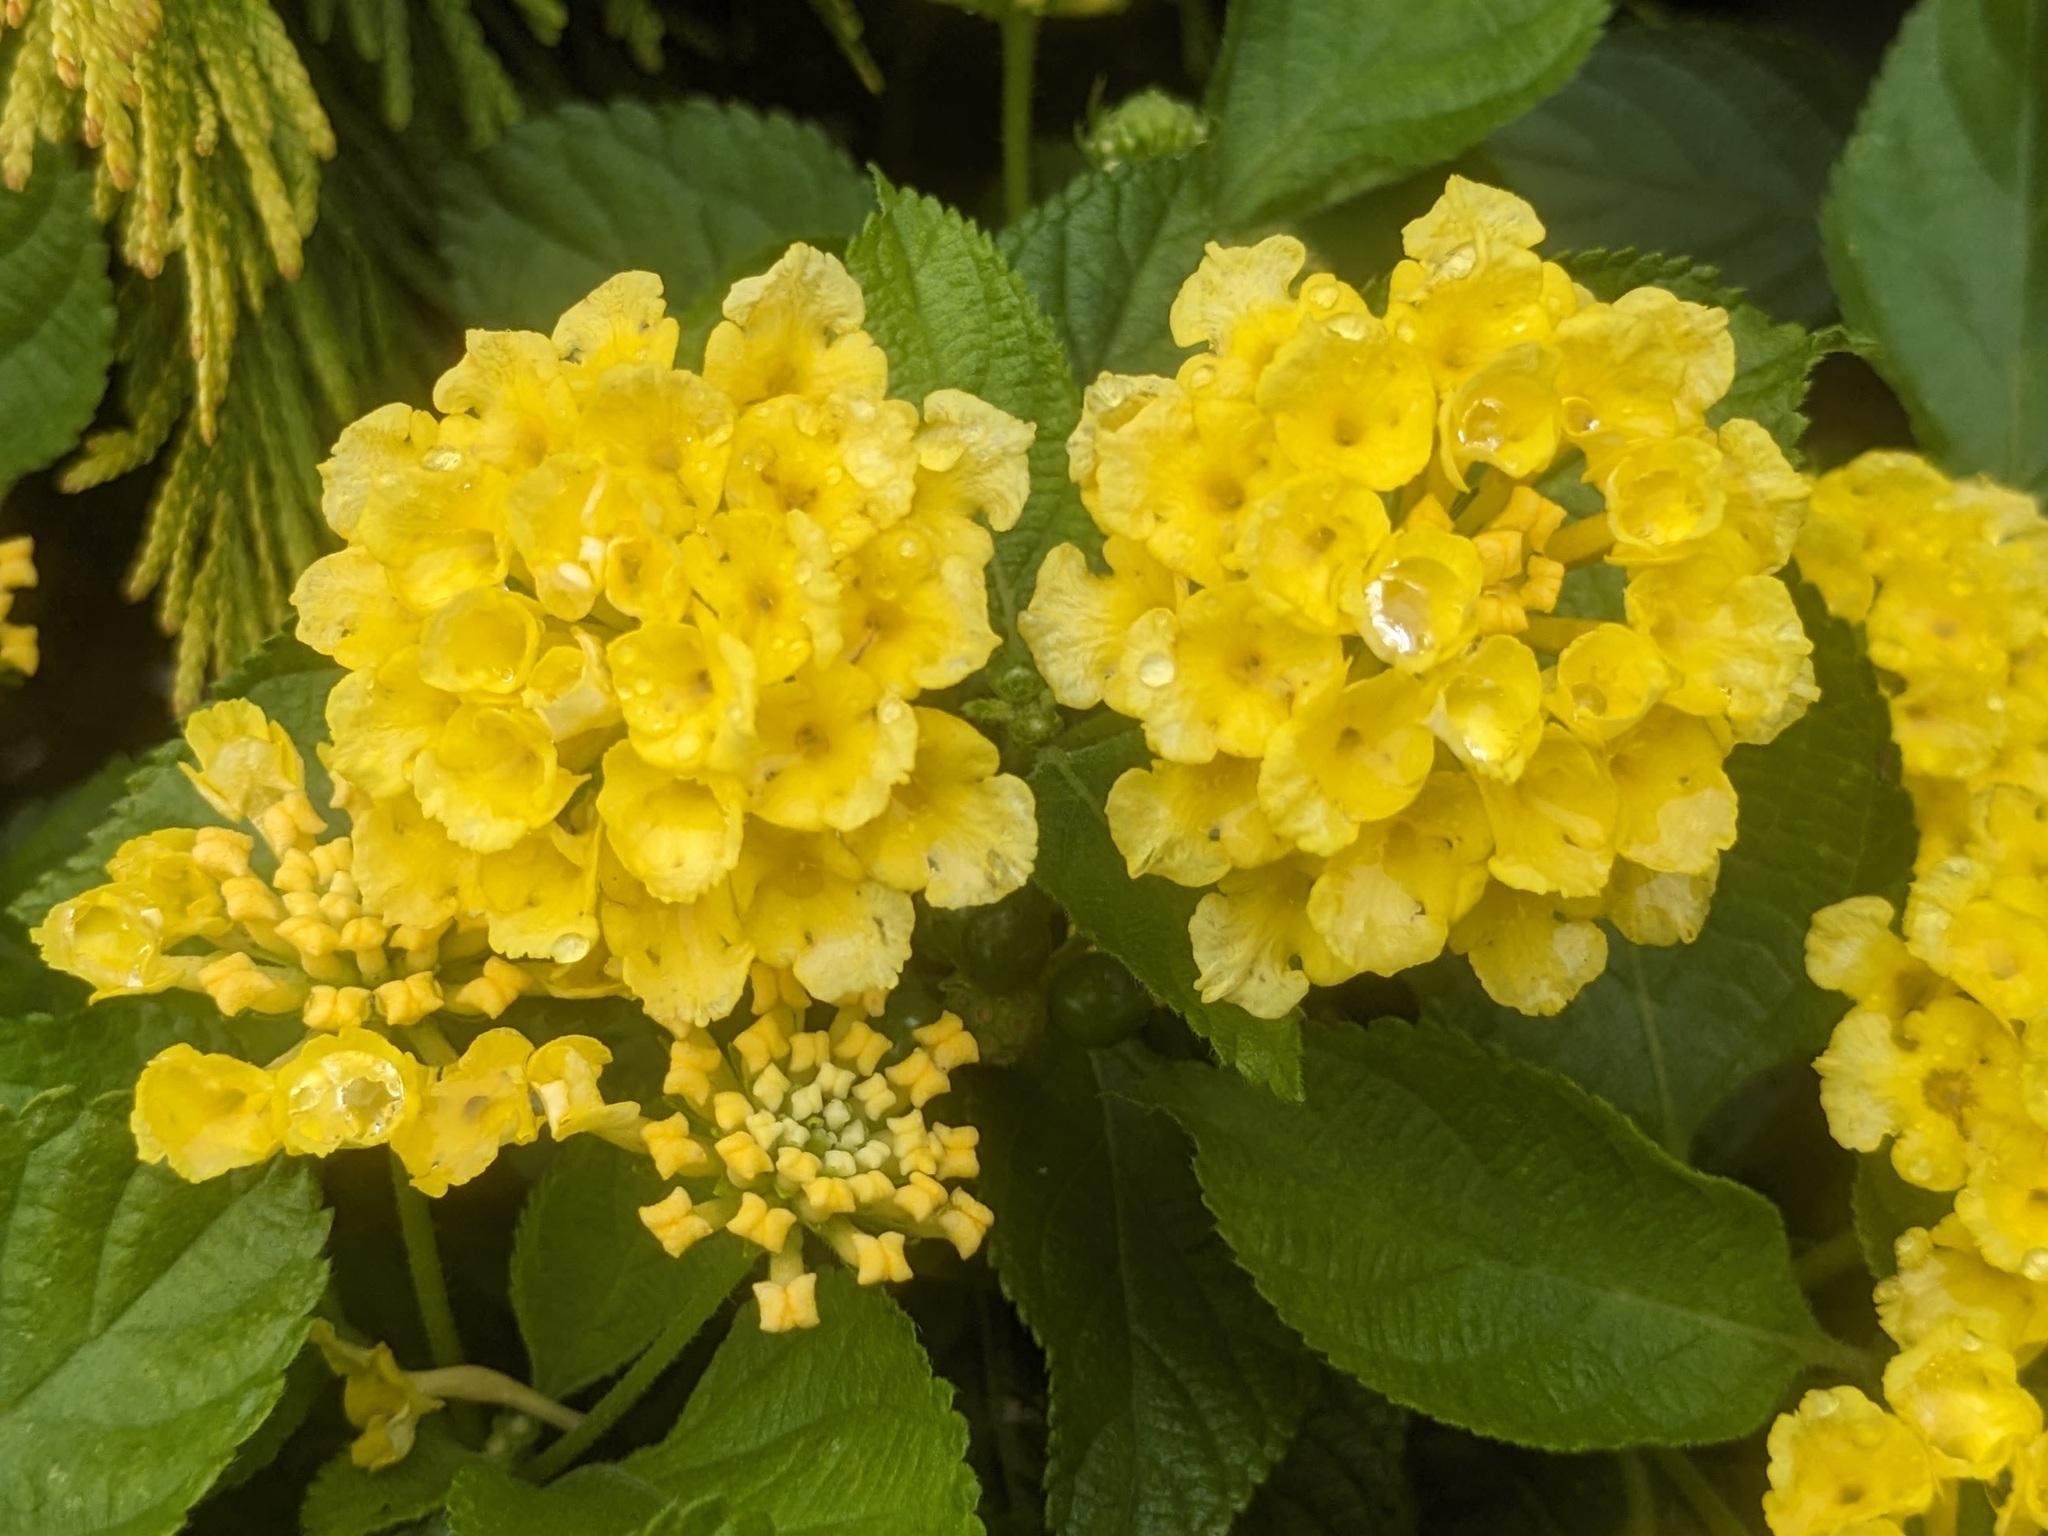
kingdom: Plantae
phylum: Tracheophyta
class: Magnoliopsida
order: Lamiales
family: Verbenaceae
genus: Lantana
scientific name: Lantana depressa
